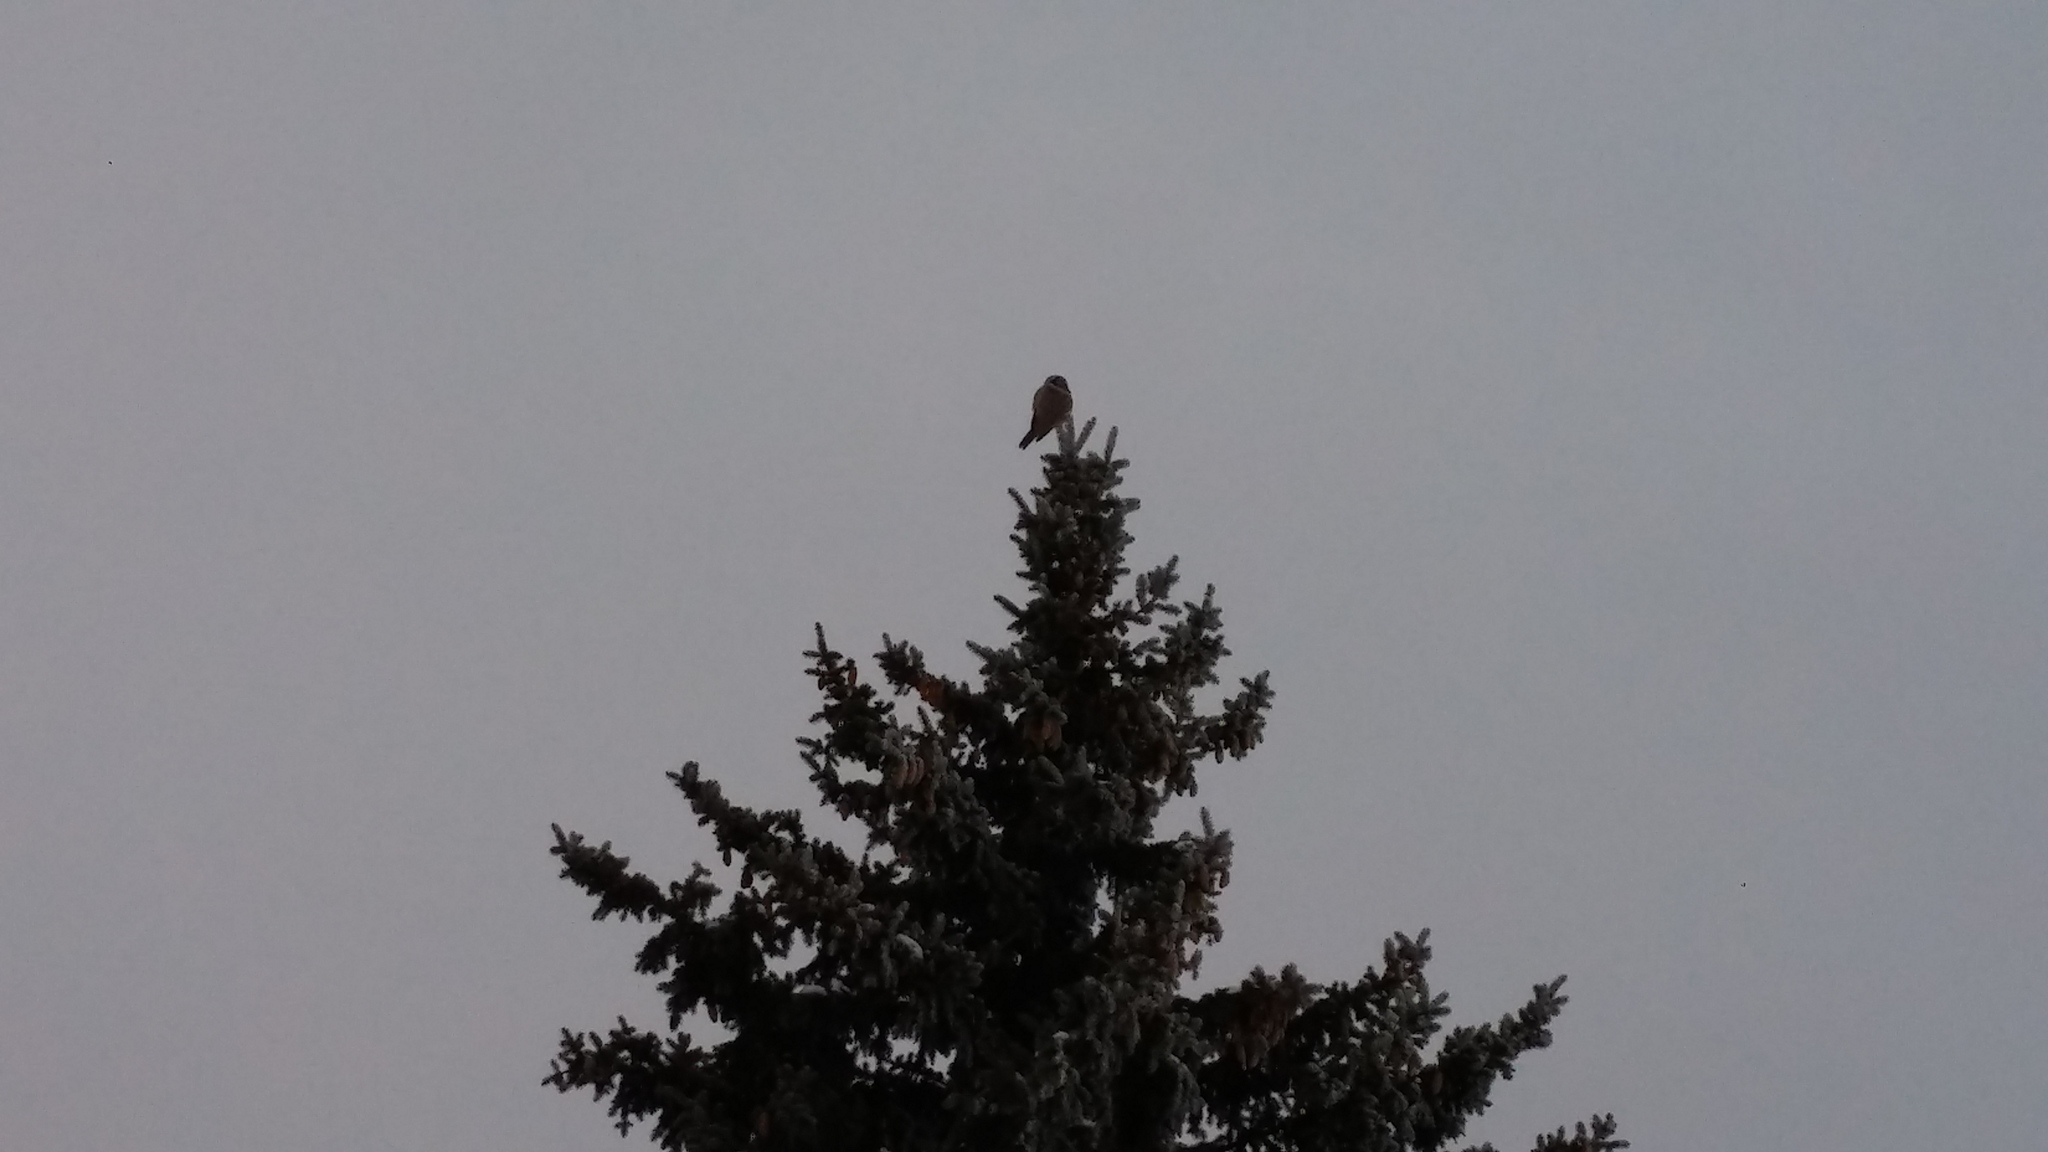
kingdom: Animalia
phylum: Chordata
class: Aves
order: Strigiformes
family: Strigidae
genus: Surnia
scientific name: Surnia ulula
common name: Northern hawk-owl
